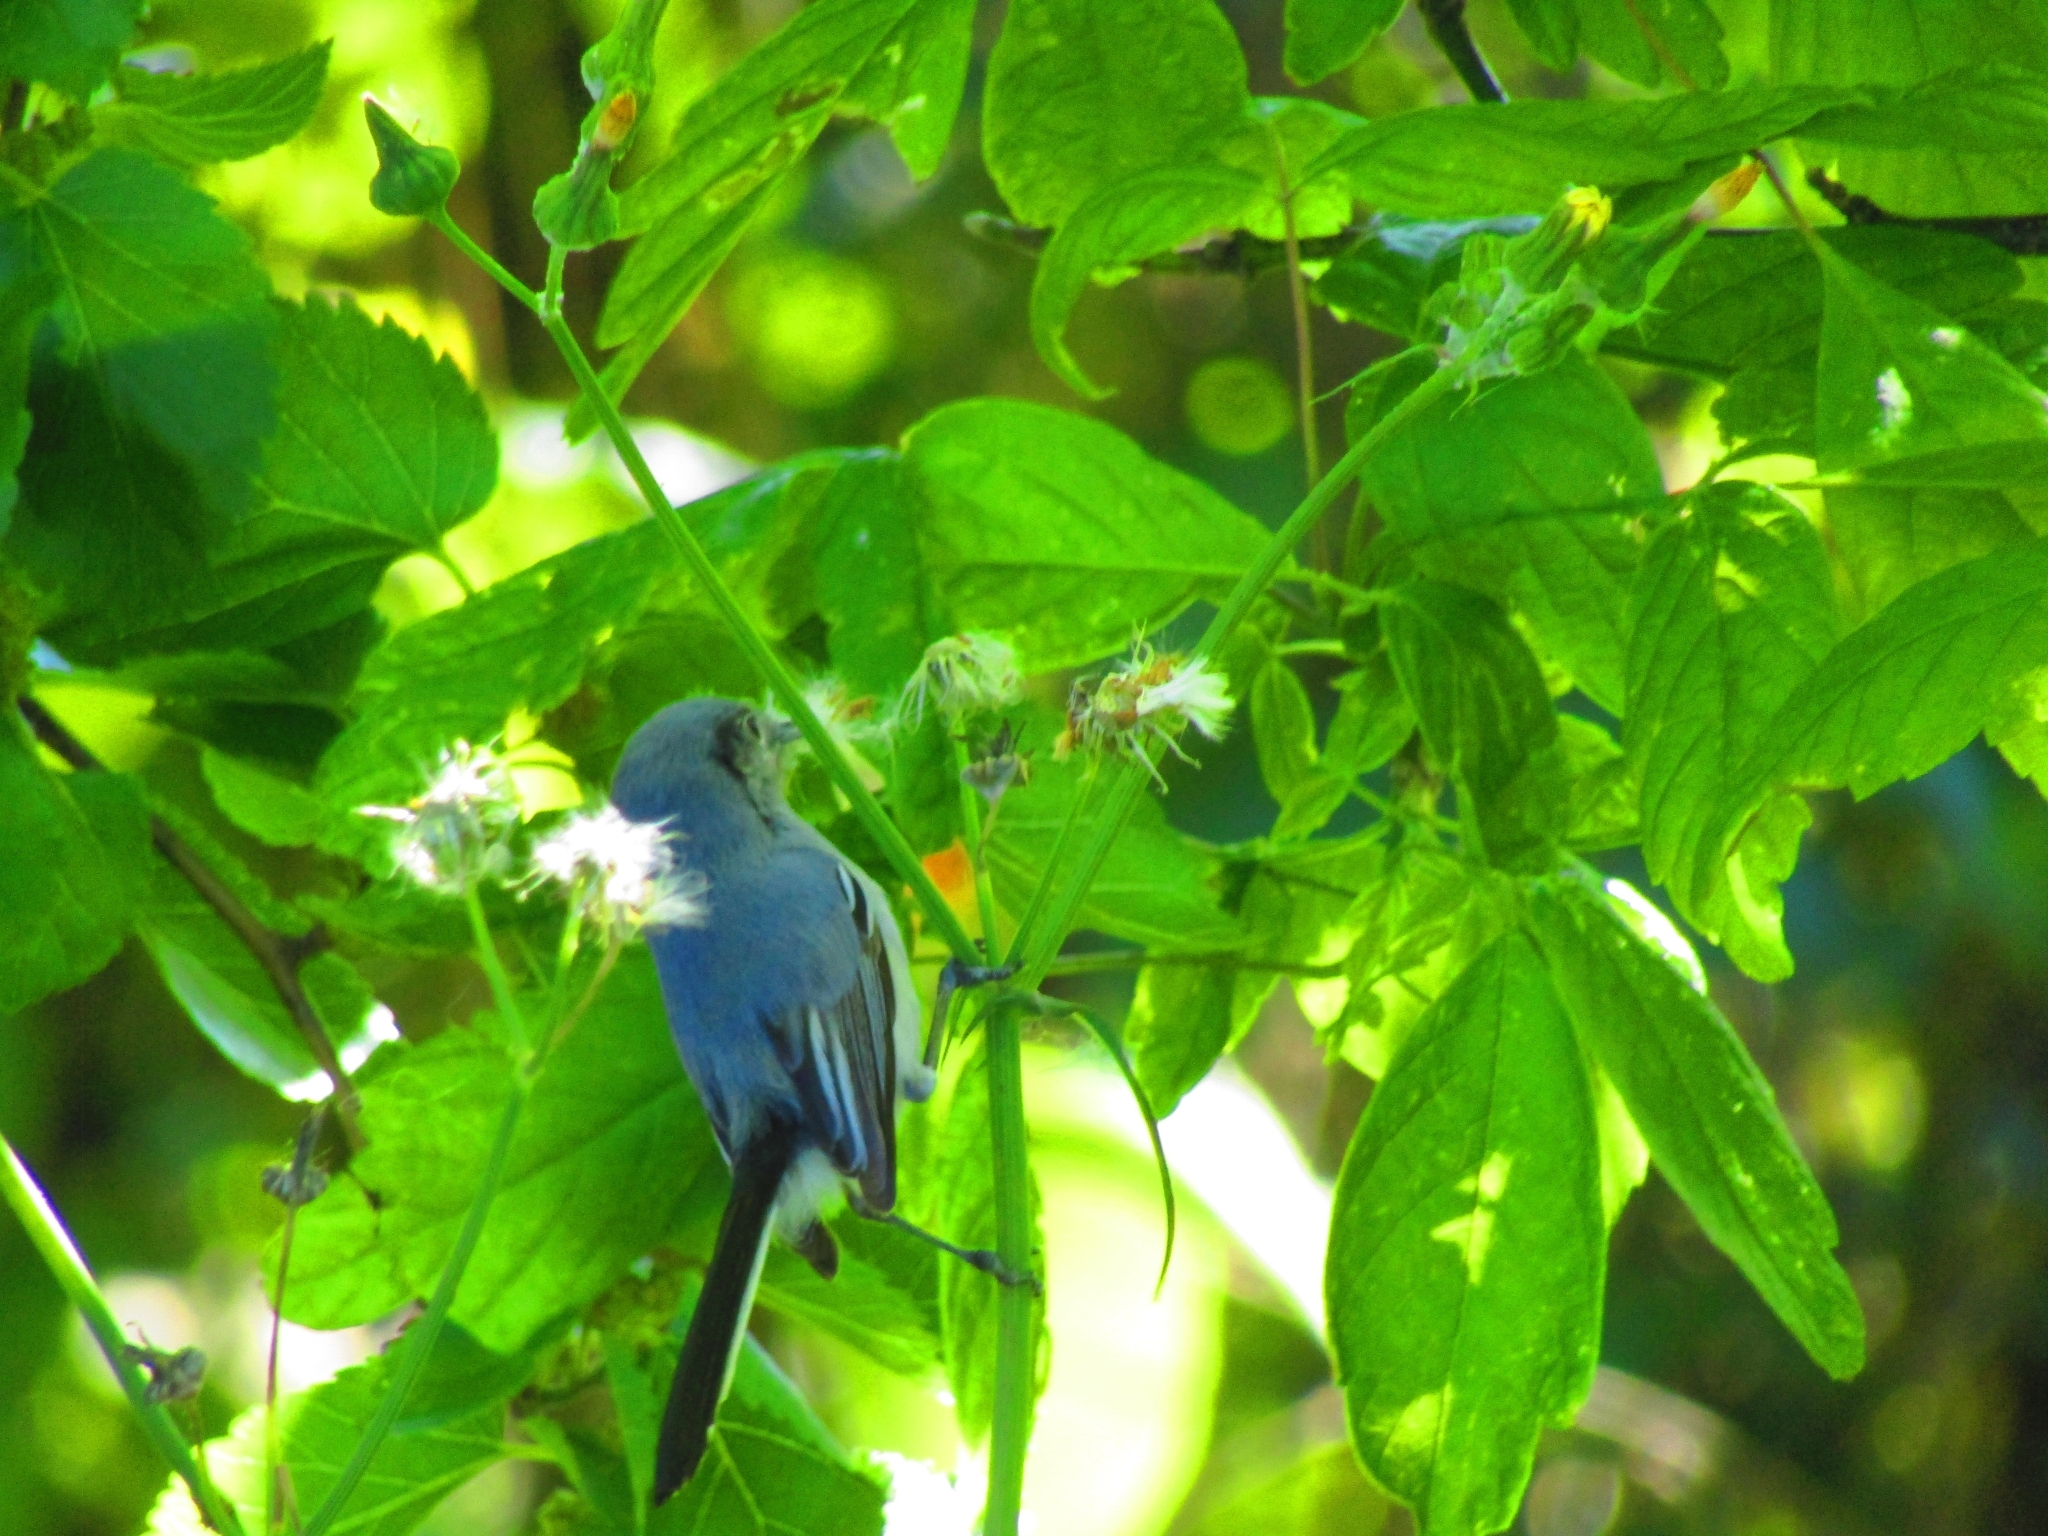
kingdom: Animalia
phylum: Chordata
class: Aves
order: Passeriformes
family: Polioptilidae
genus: Polioptila
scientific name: Polioptila dumicola
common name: Masked gnatcatcher
